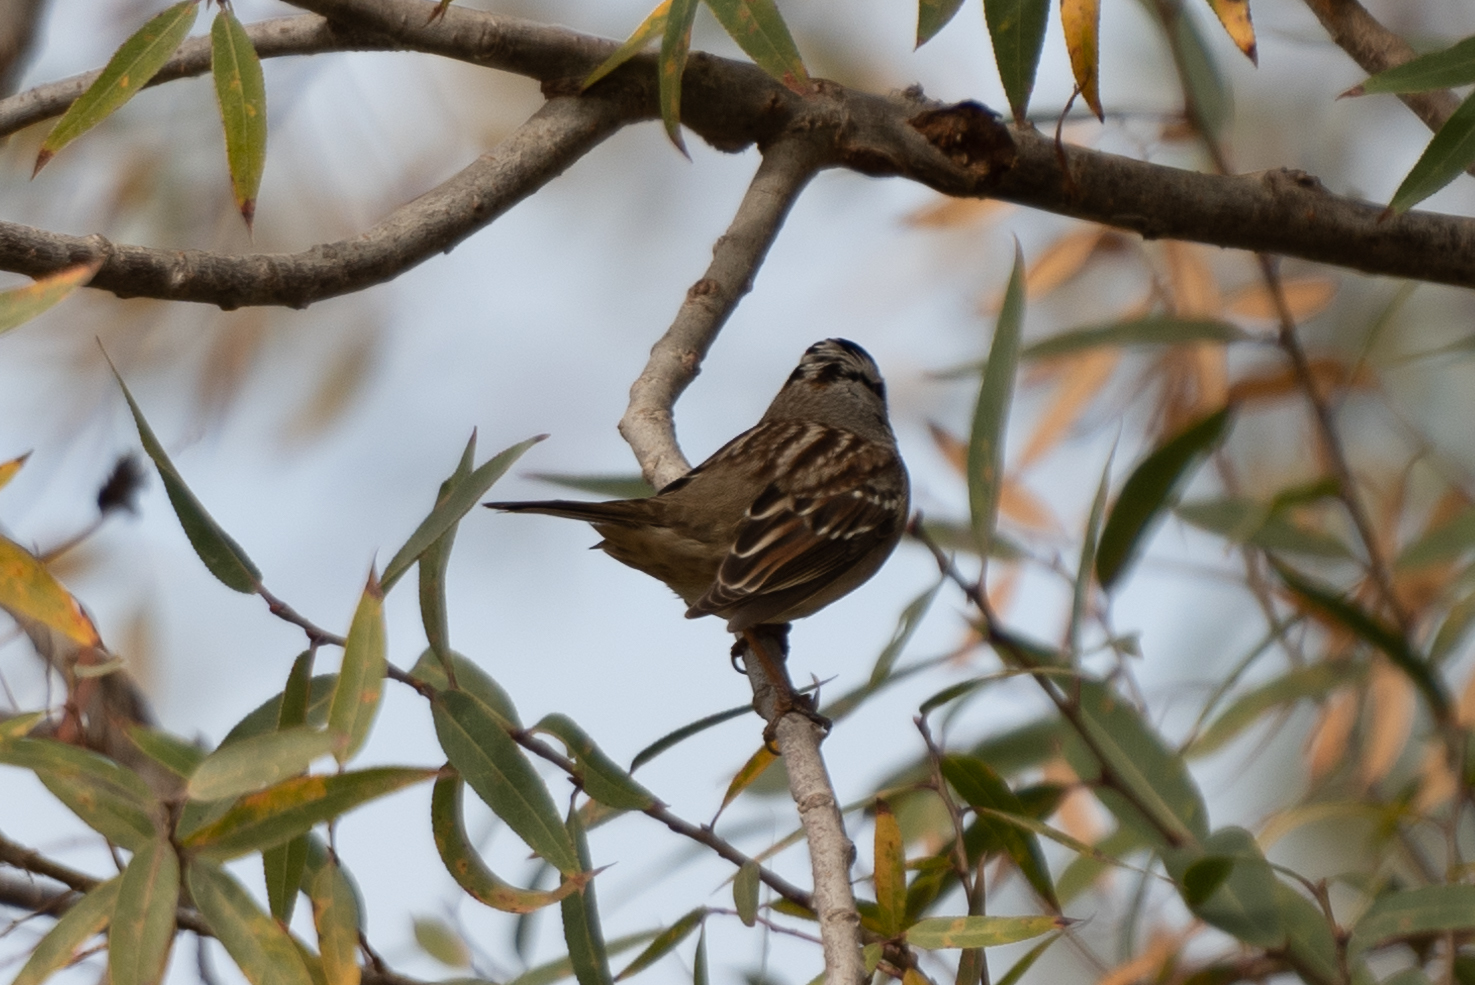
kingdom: Animalia
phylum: Chordata
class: Aves
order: Passeriformes
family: Passerellidae
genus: Zonotrichia
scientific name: Zonotrichia leucophrys
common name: White-crowned sparrow
